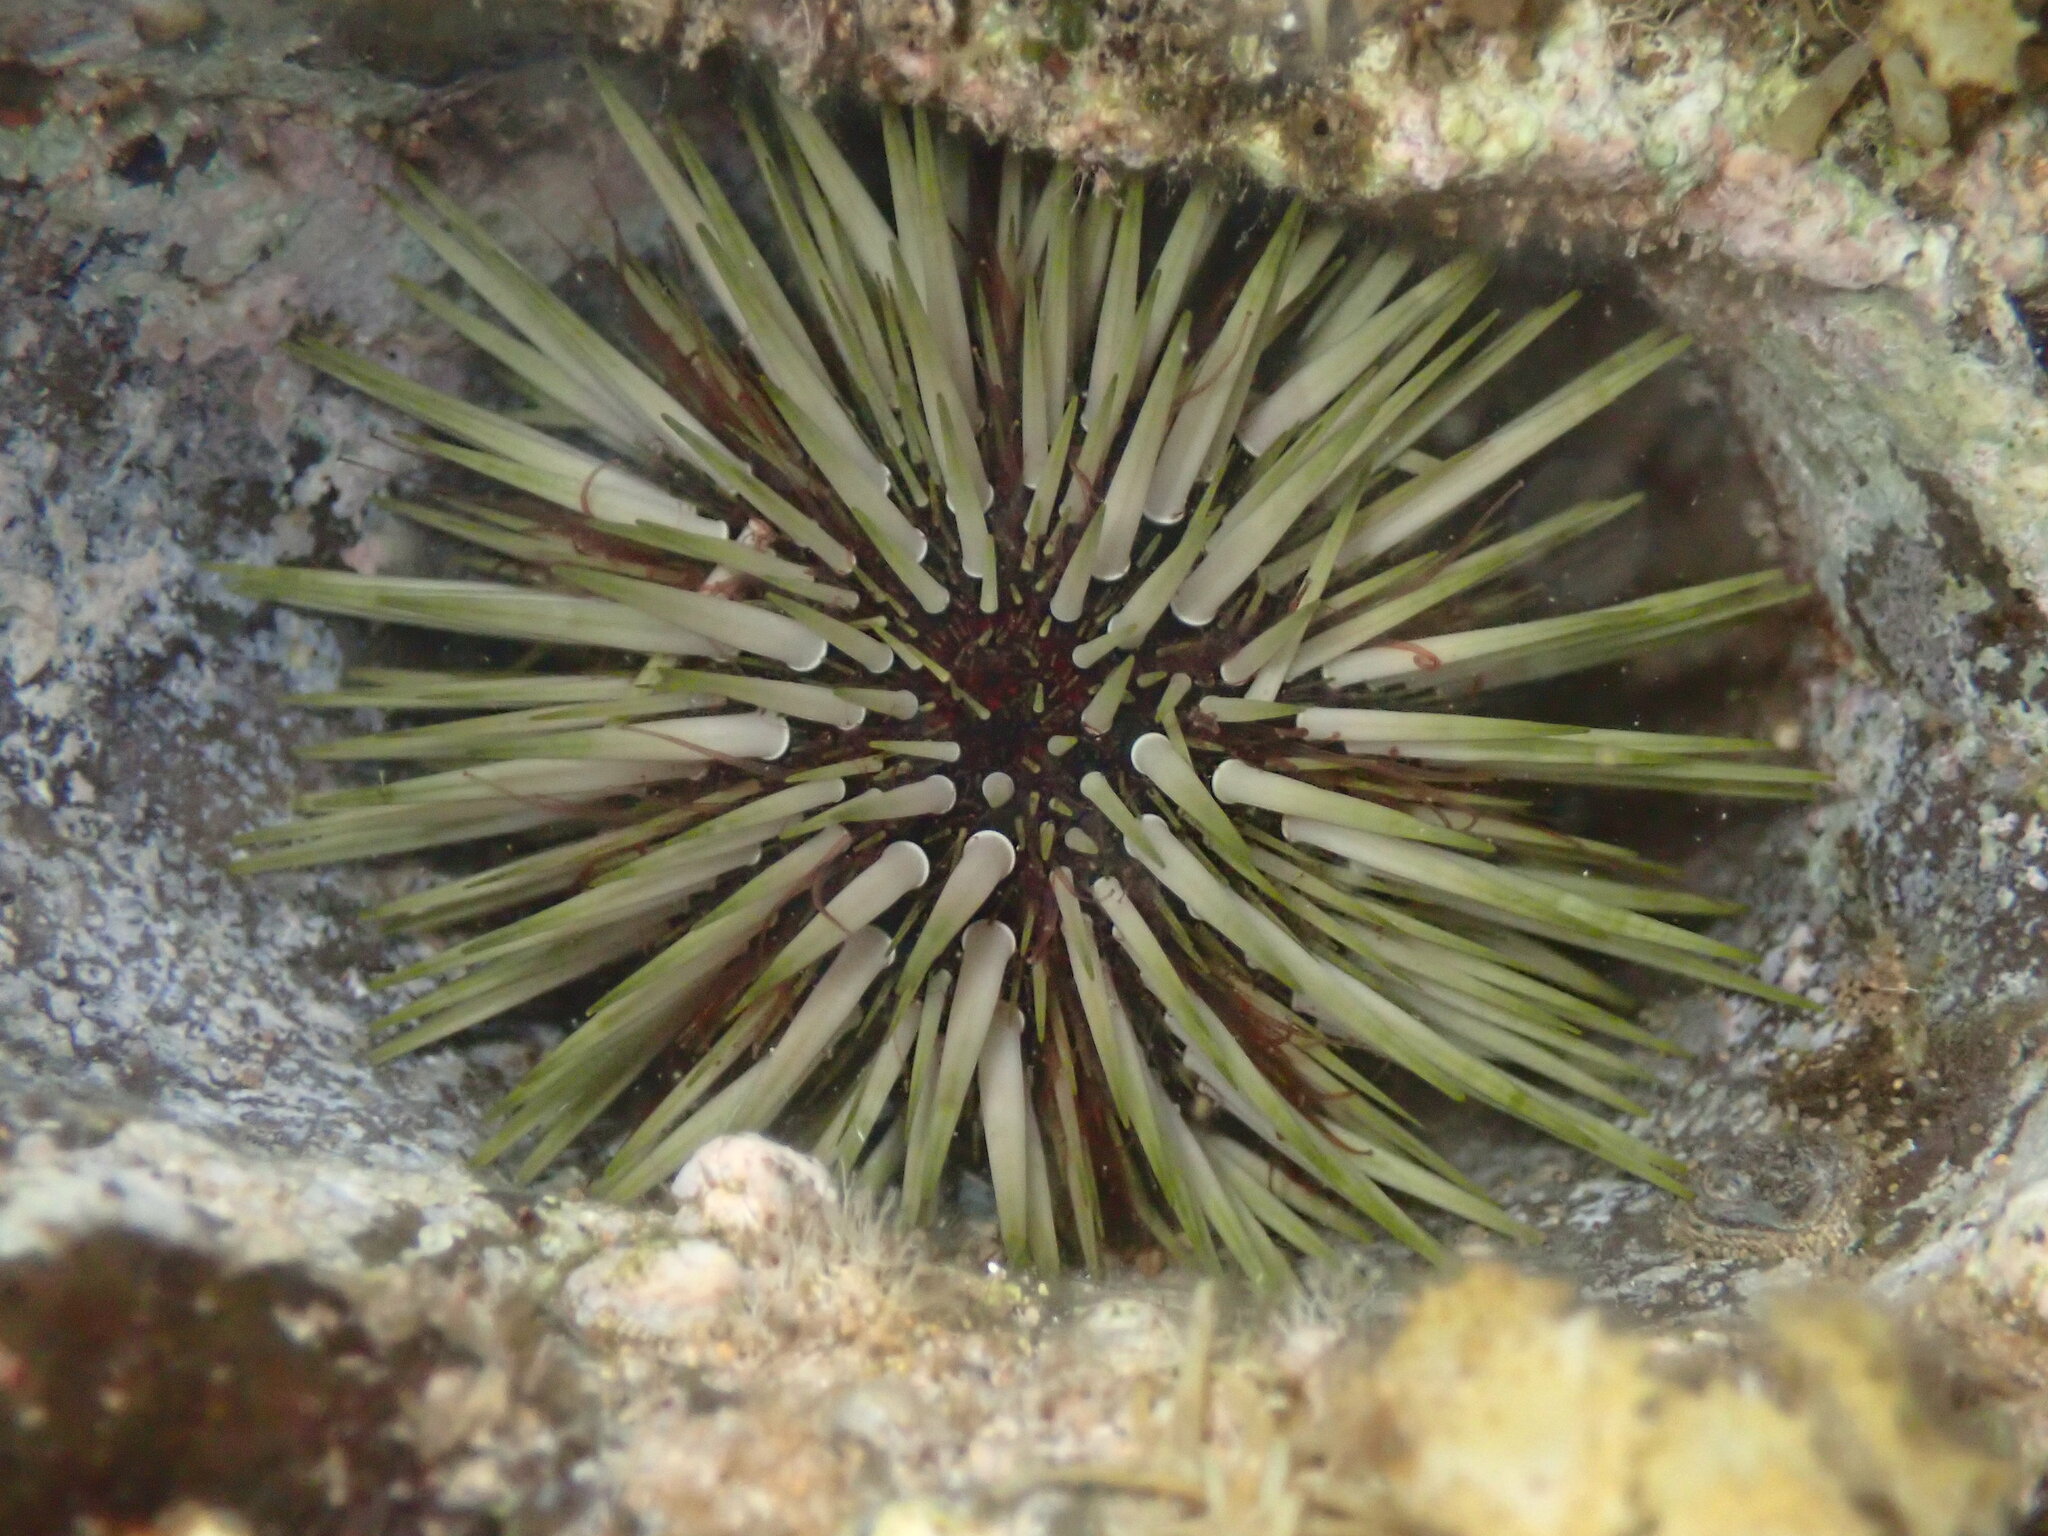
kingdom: Animalia
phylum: Echinodermata
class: Echinoidea
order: Camarodonta
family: Echinometridae
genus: Echinometra
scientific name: Echinometra mathaei
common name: Rock-boring urchin
